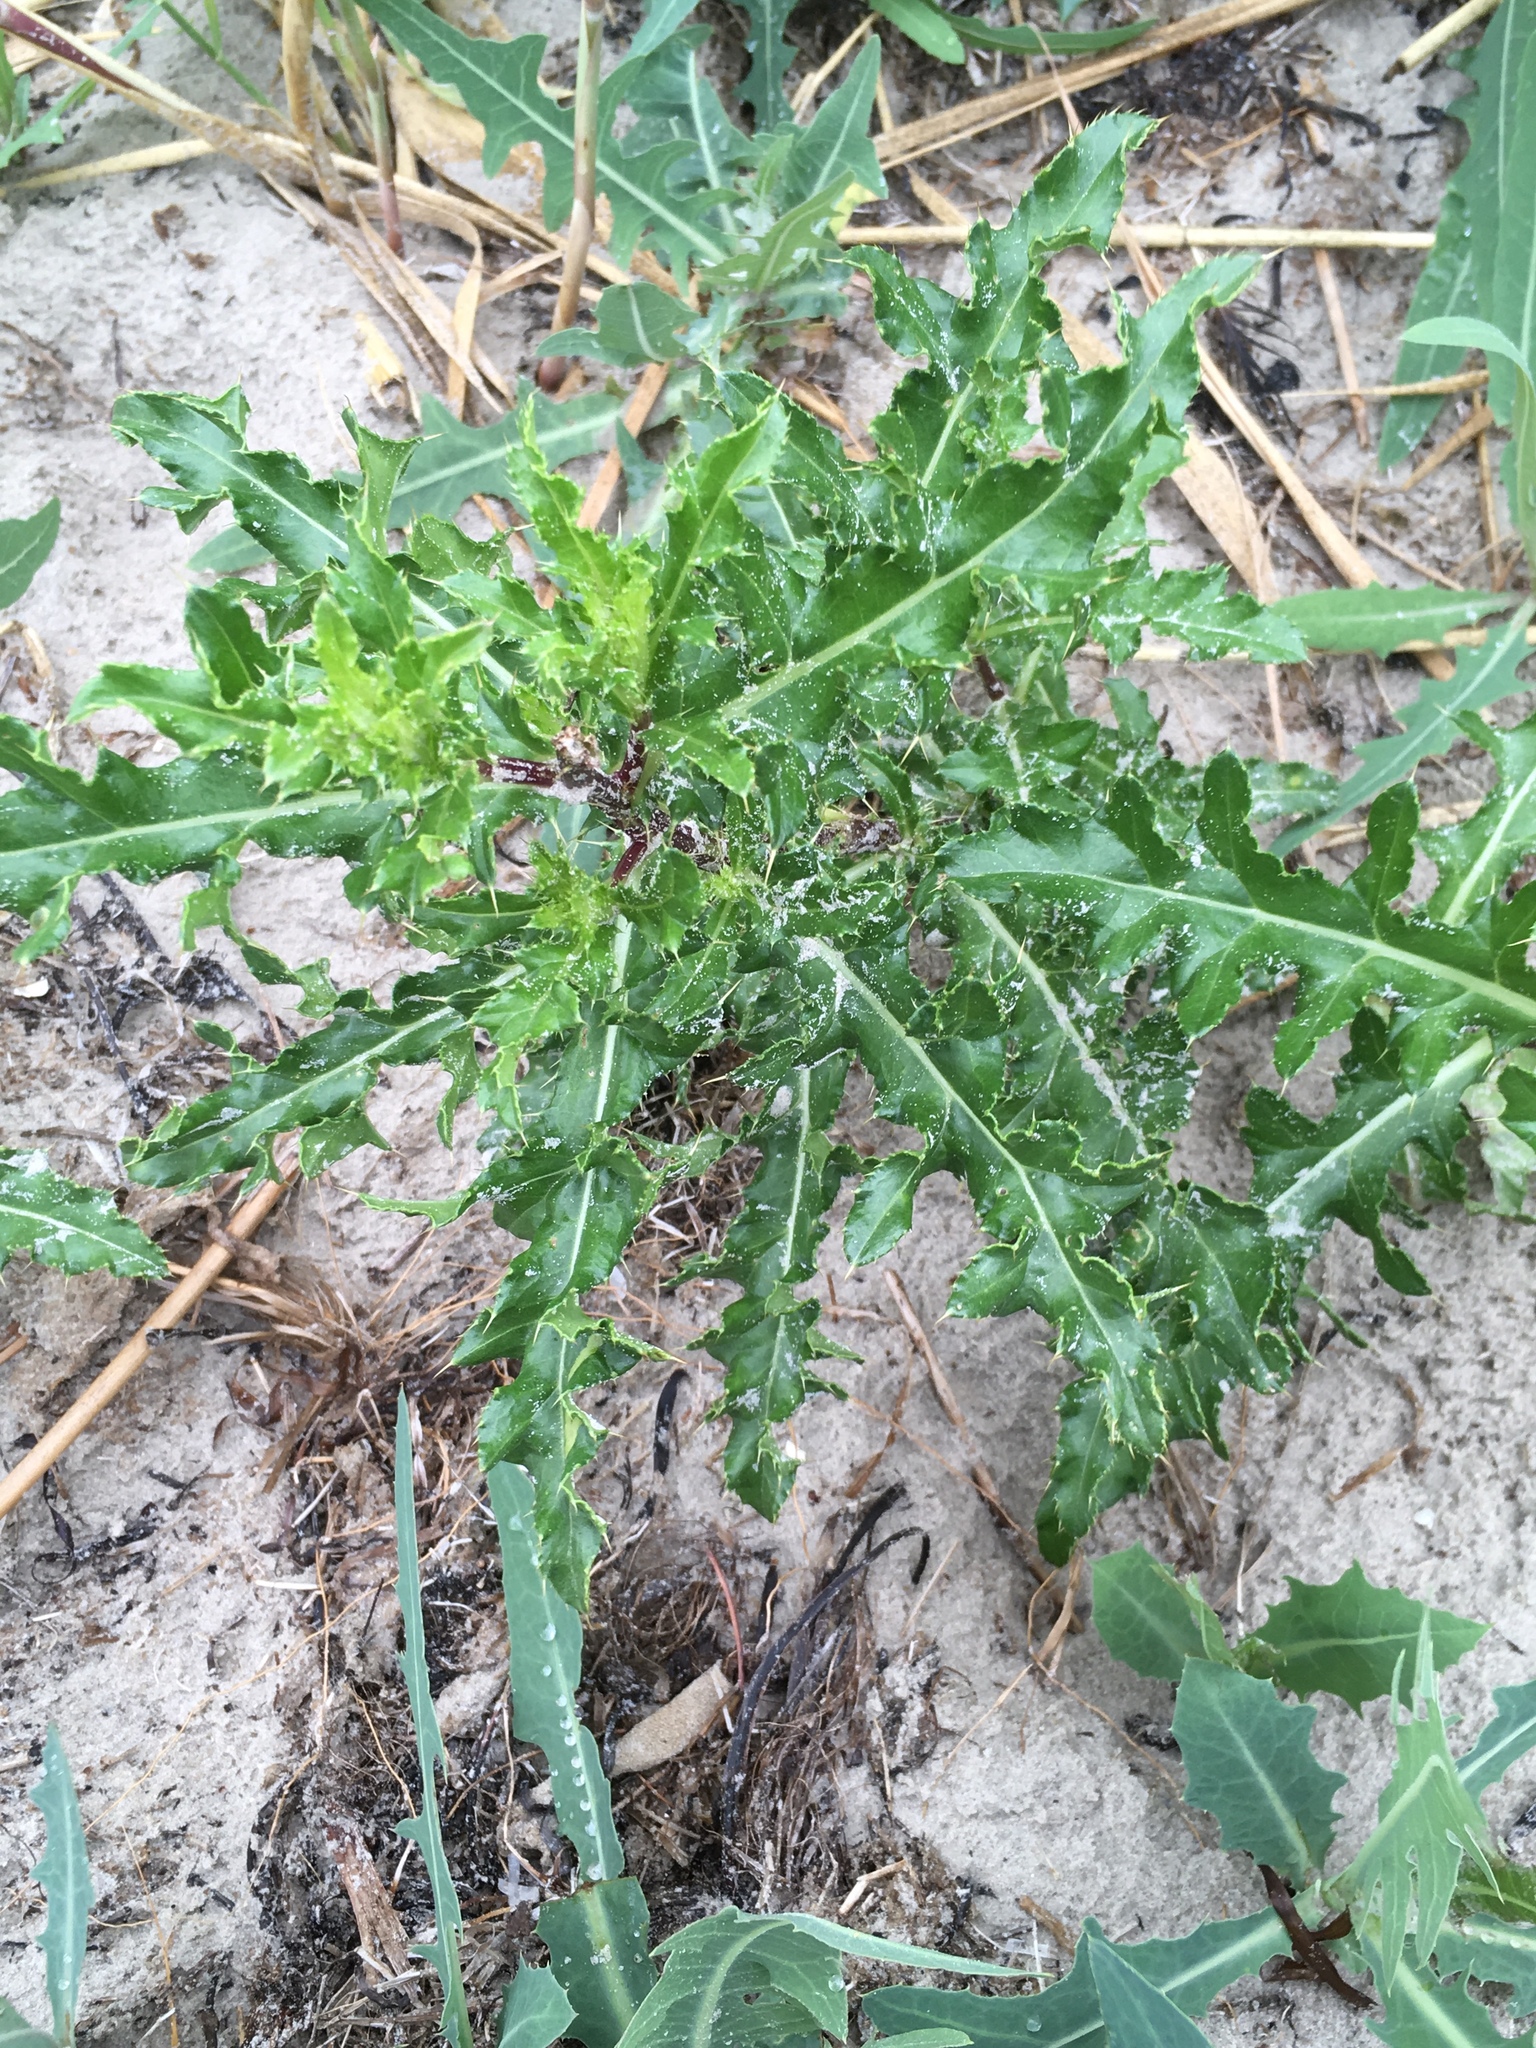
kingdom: Plantae
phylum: Tracheophyta
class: Magnoliopsida
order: Asterales
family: Asteraceae
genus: Cirsium
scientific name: Cirsium arvense
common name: Creeping thistle
